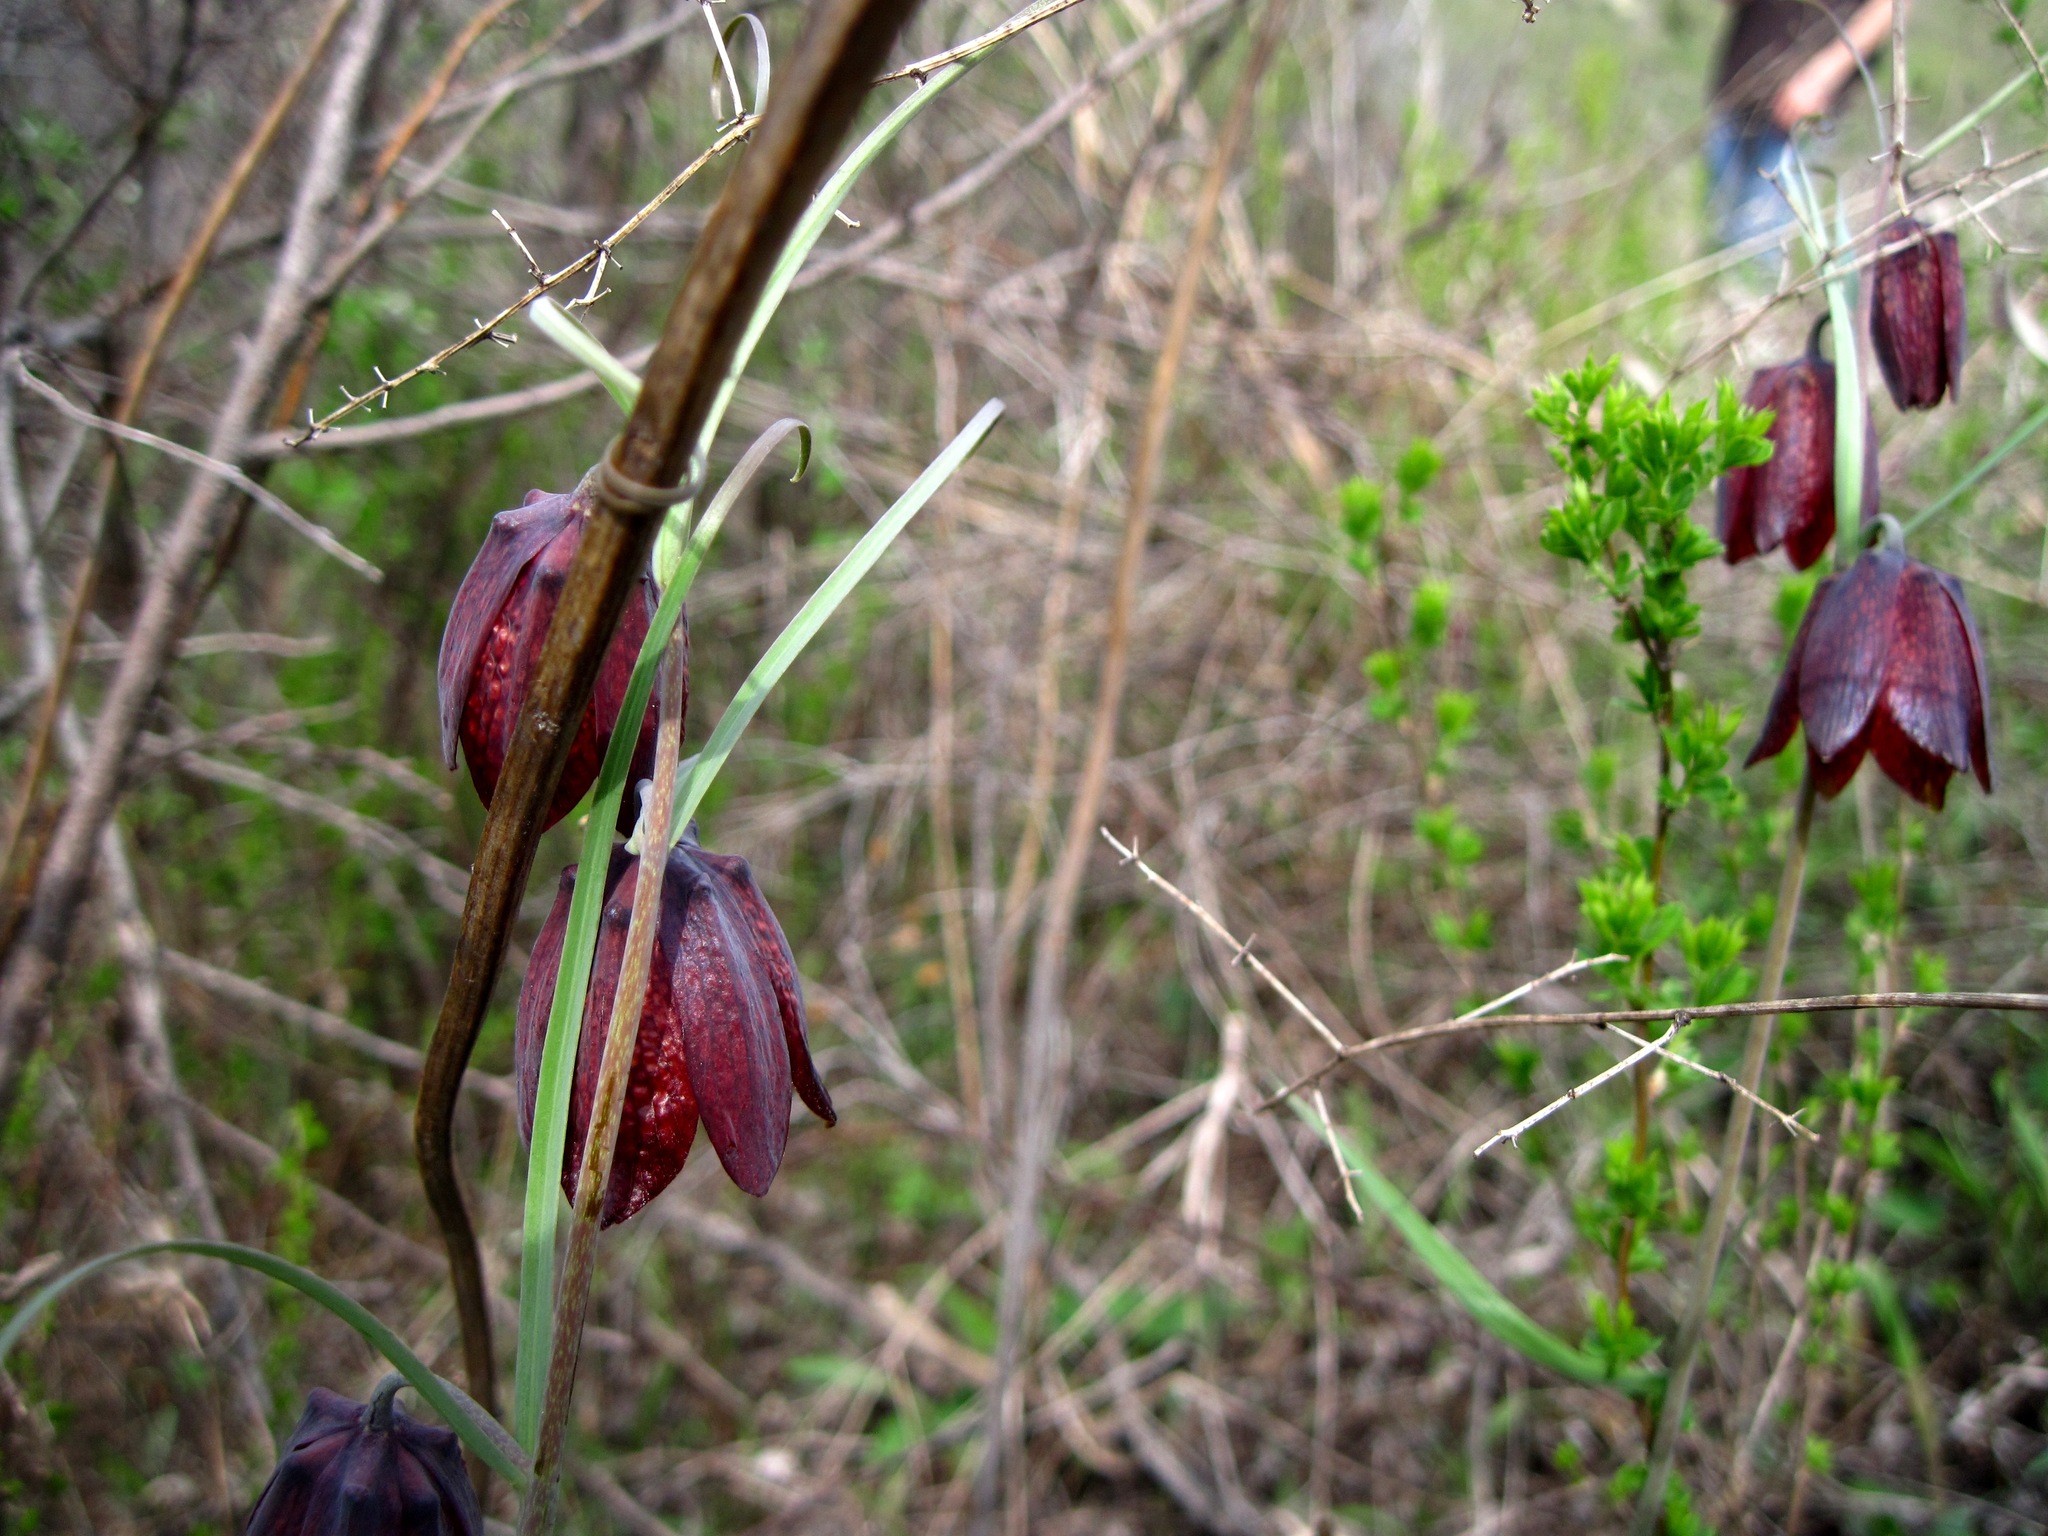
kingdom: Plantae
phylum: Tracheophyta
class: Liliopsida
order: Liliales
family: Liliaceae
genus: Fritillaria
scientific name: Fritillaria ruthenica
